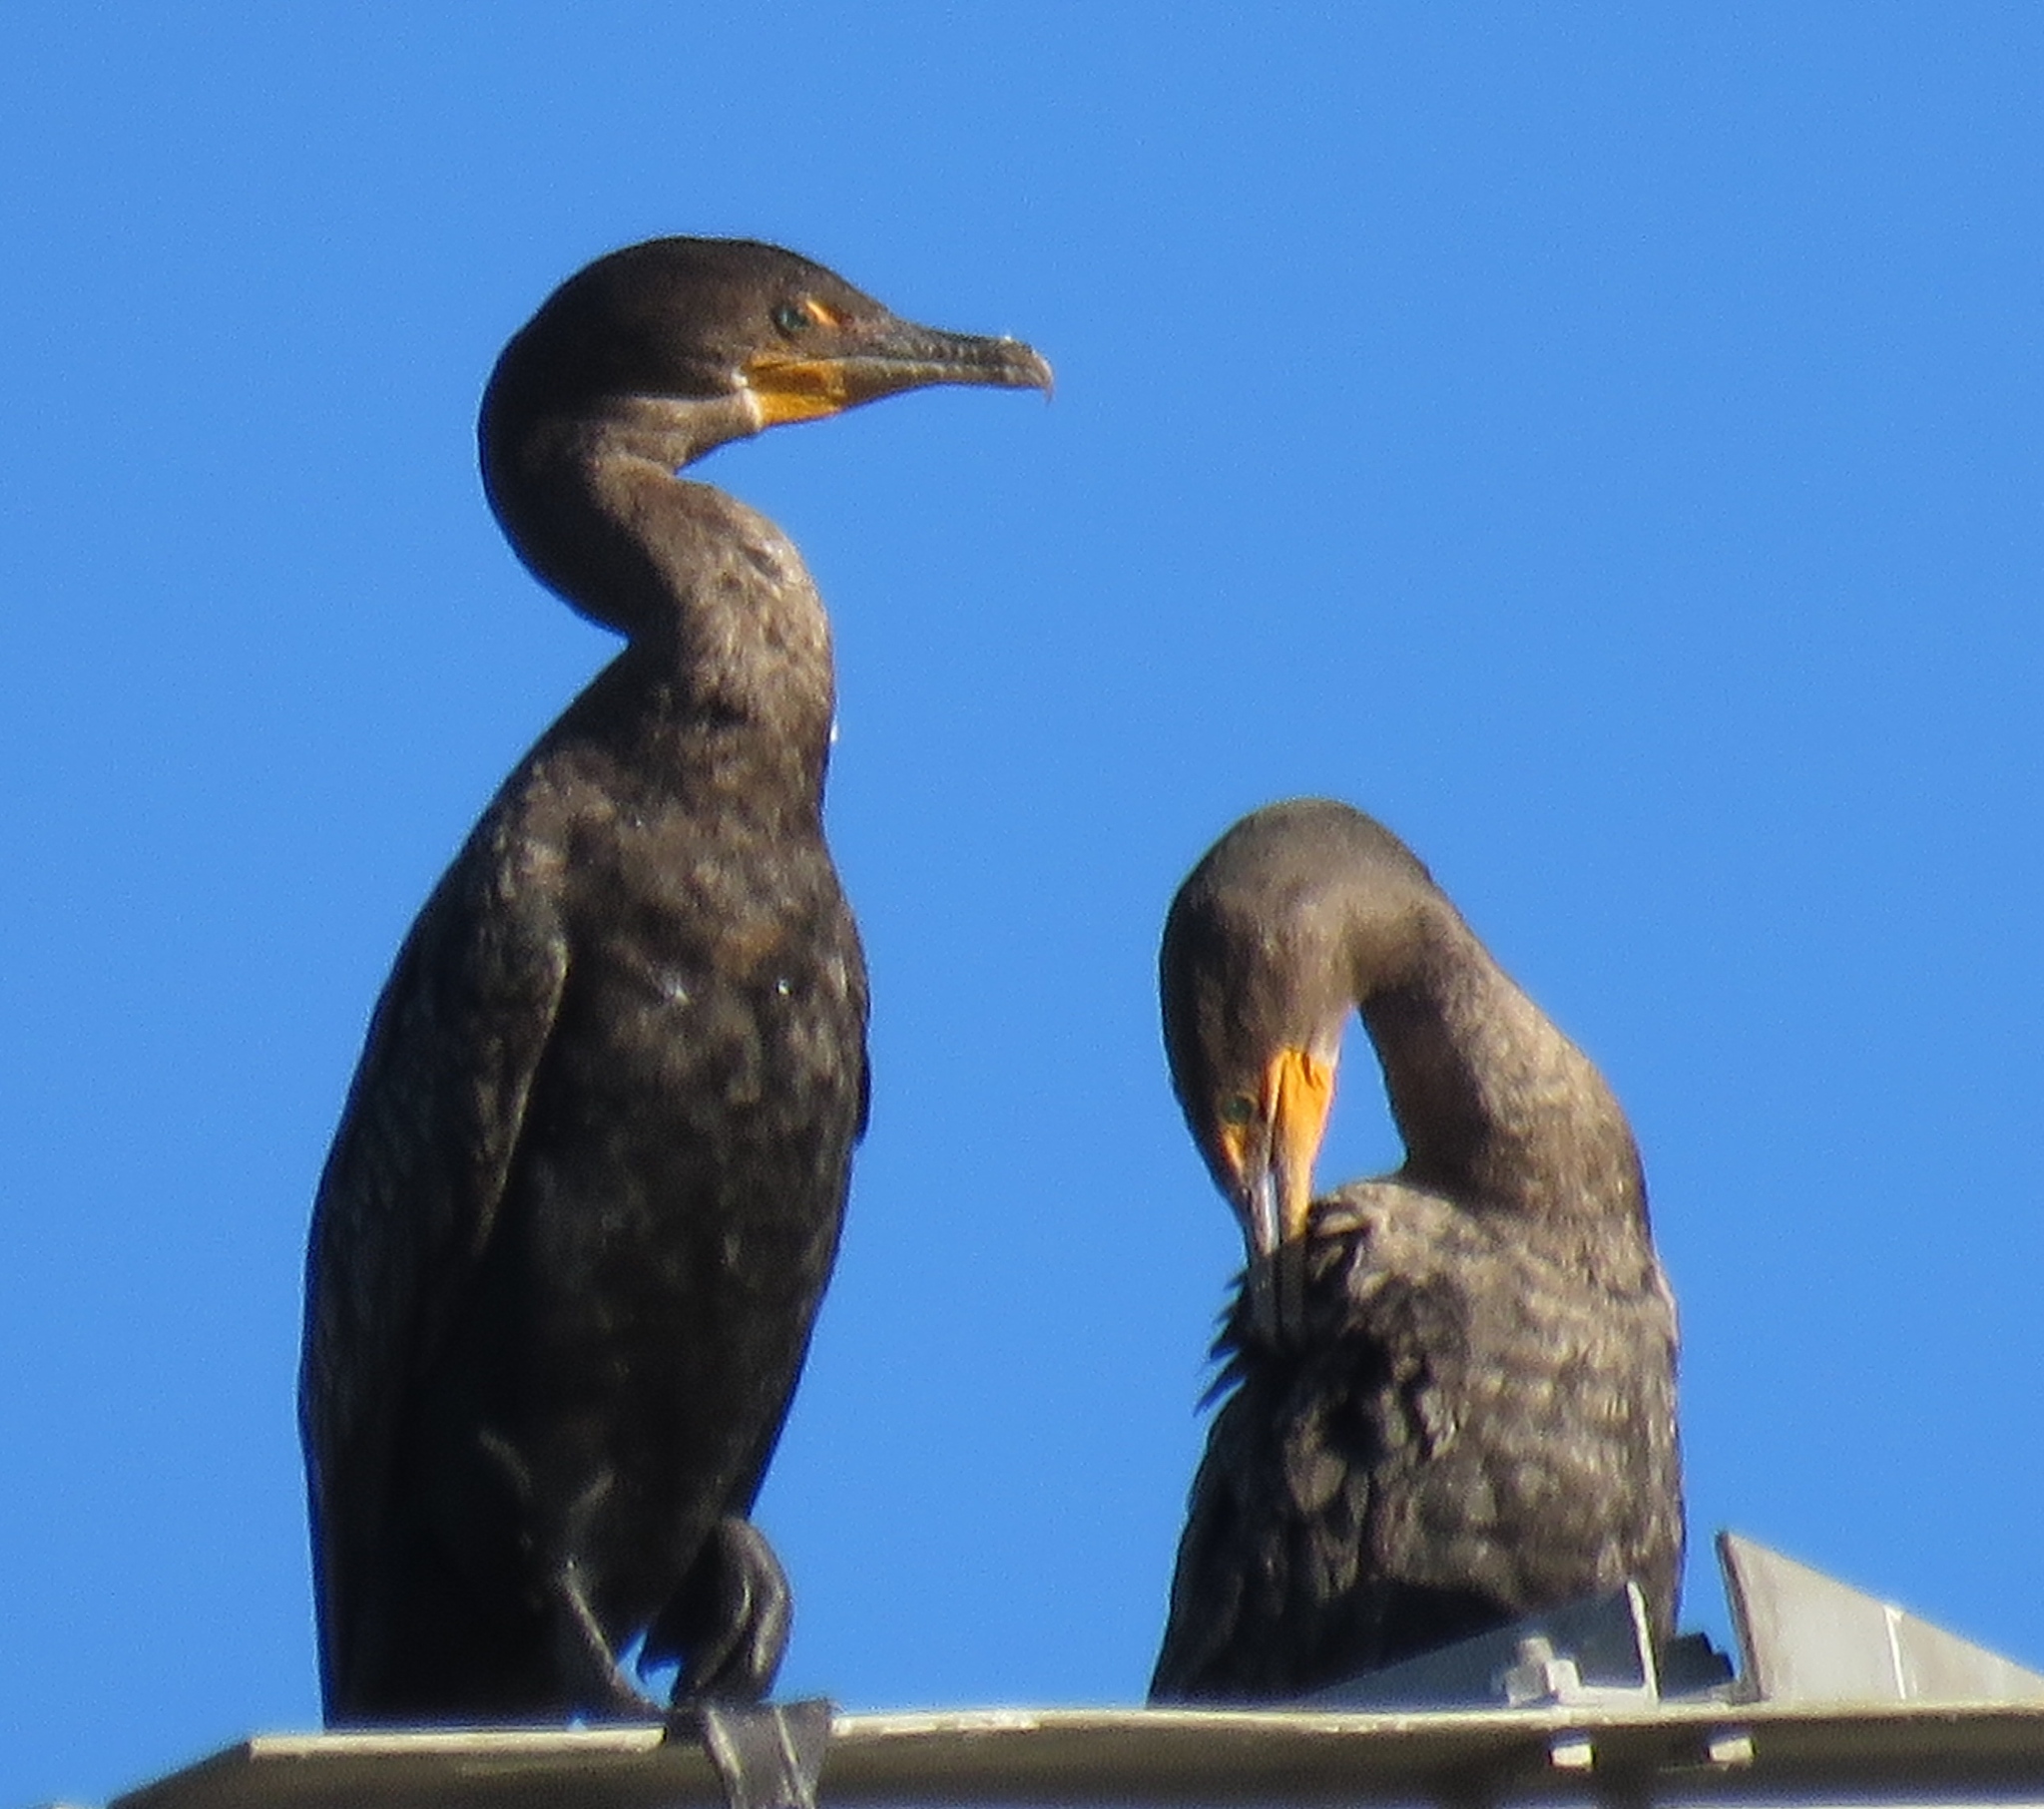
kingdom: Animalia
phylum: Chordata
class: Aves
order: Suliformes
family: Phalacrocoracidae
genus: Phalacrocorax
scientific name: Phalacrocorax auritus
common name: Double-crested cormorant
